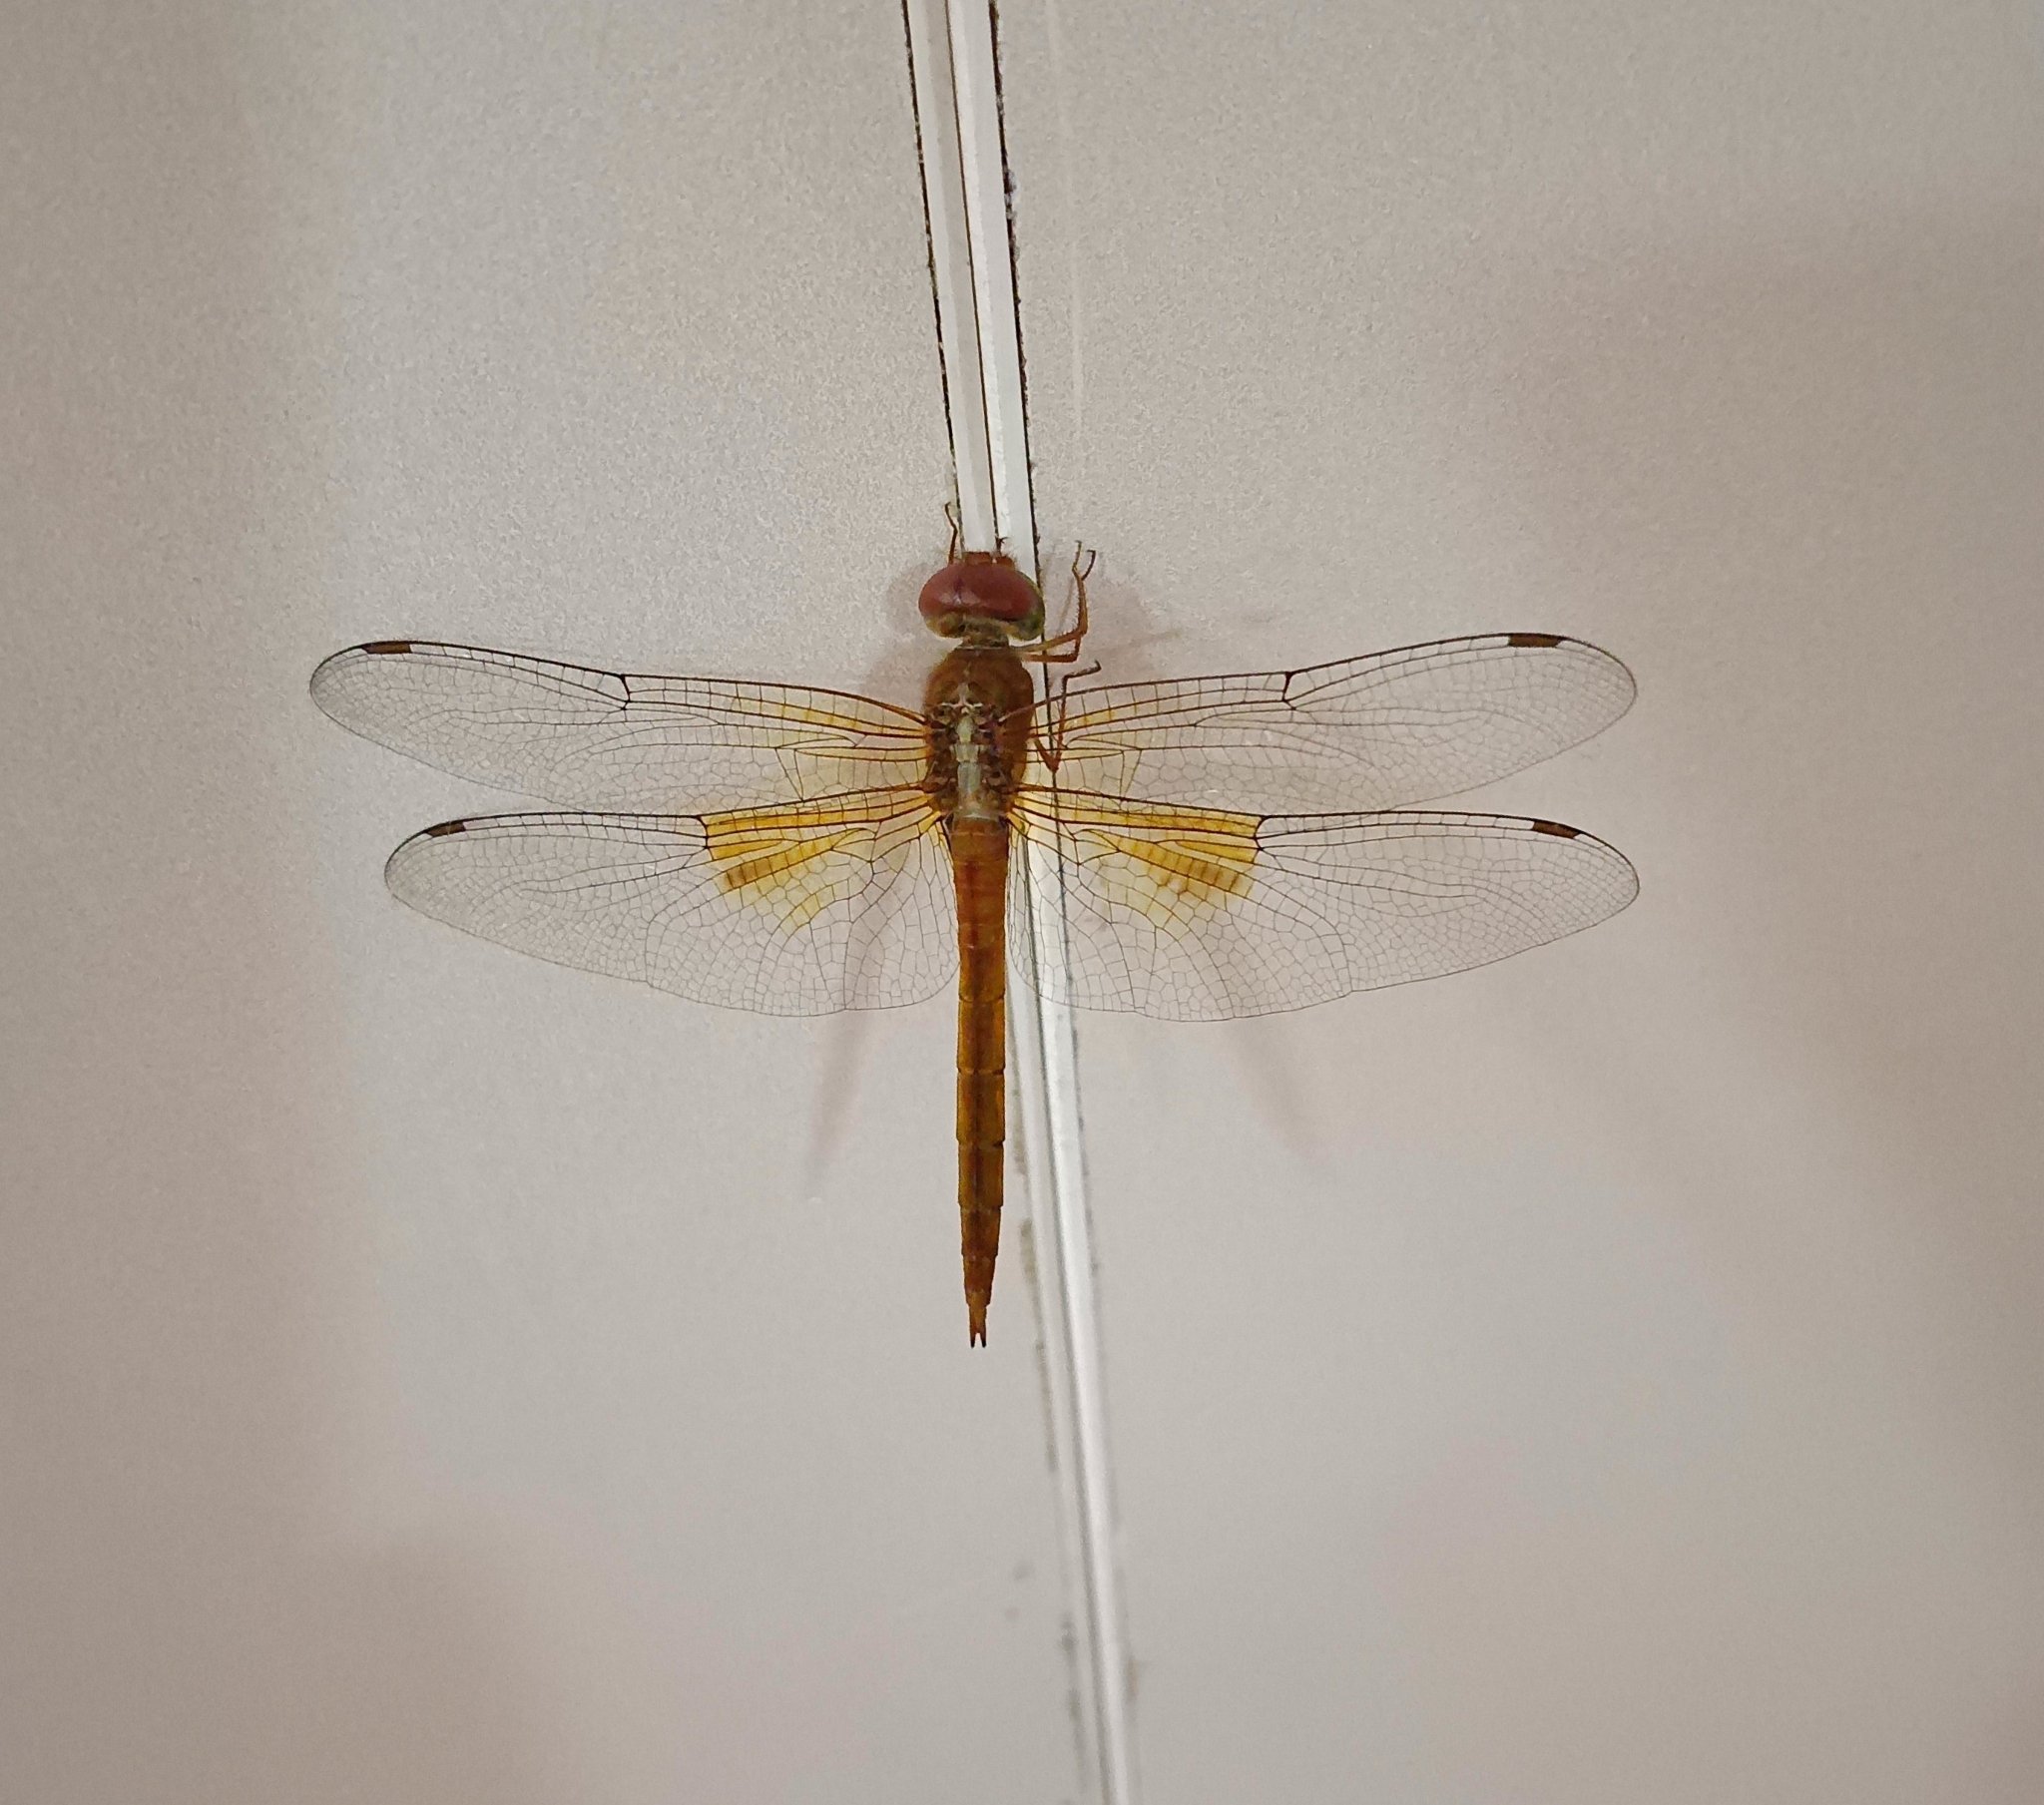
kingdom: Animalia
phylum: Arthropoda
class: Insecta
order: Odonata
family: Libellulidae
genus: Tholymis
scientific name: Tholymis tillarga
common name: Coral-tailed cloud wing
